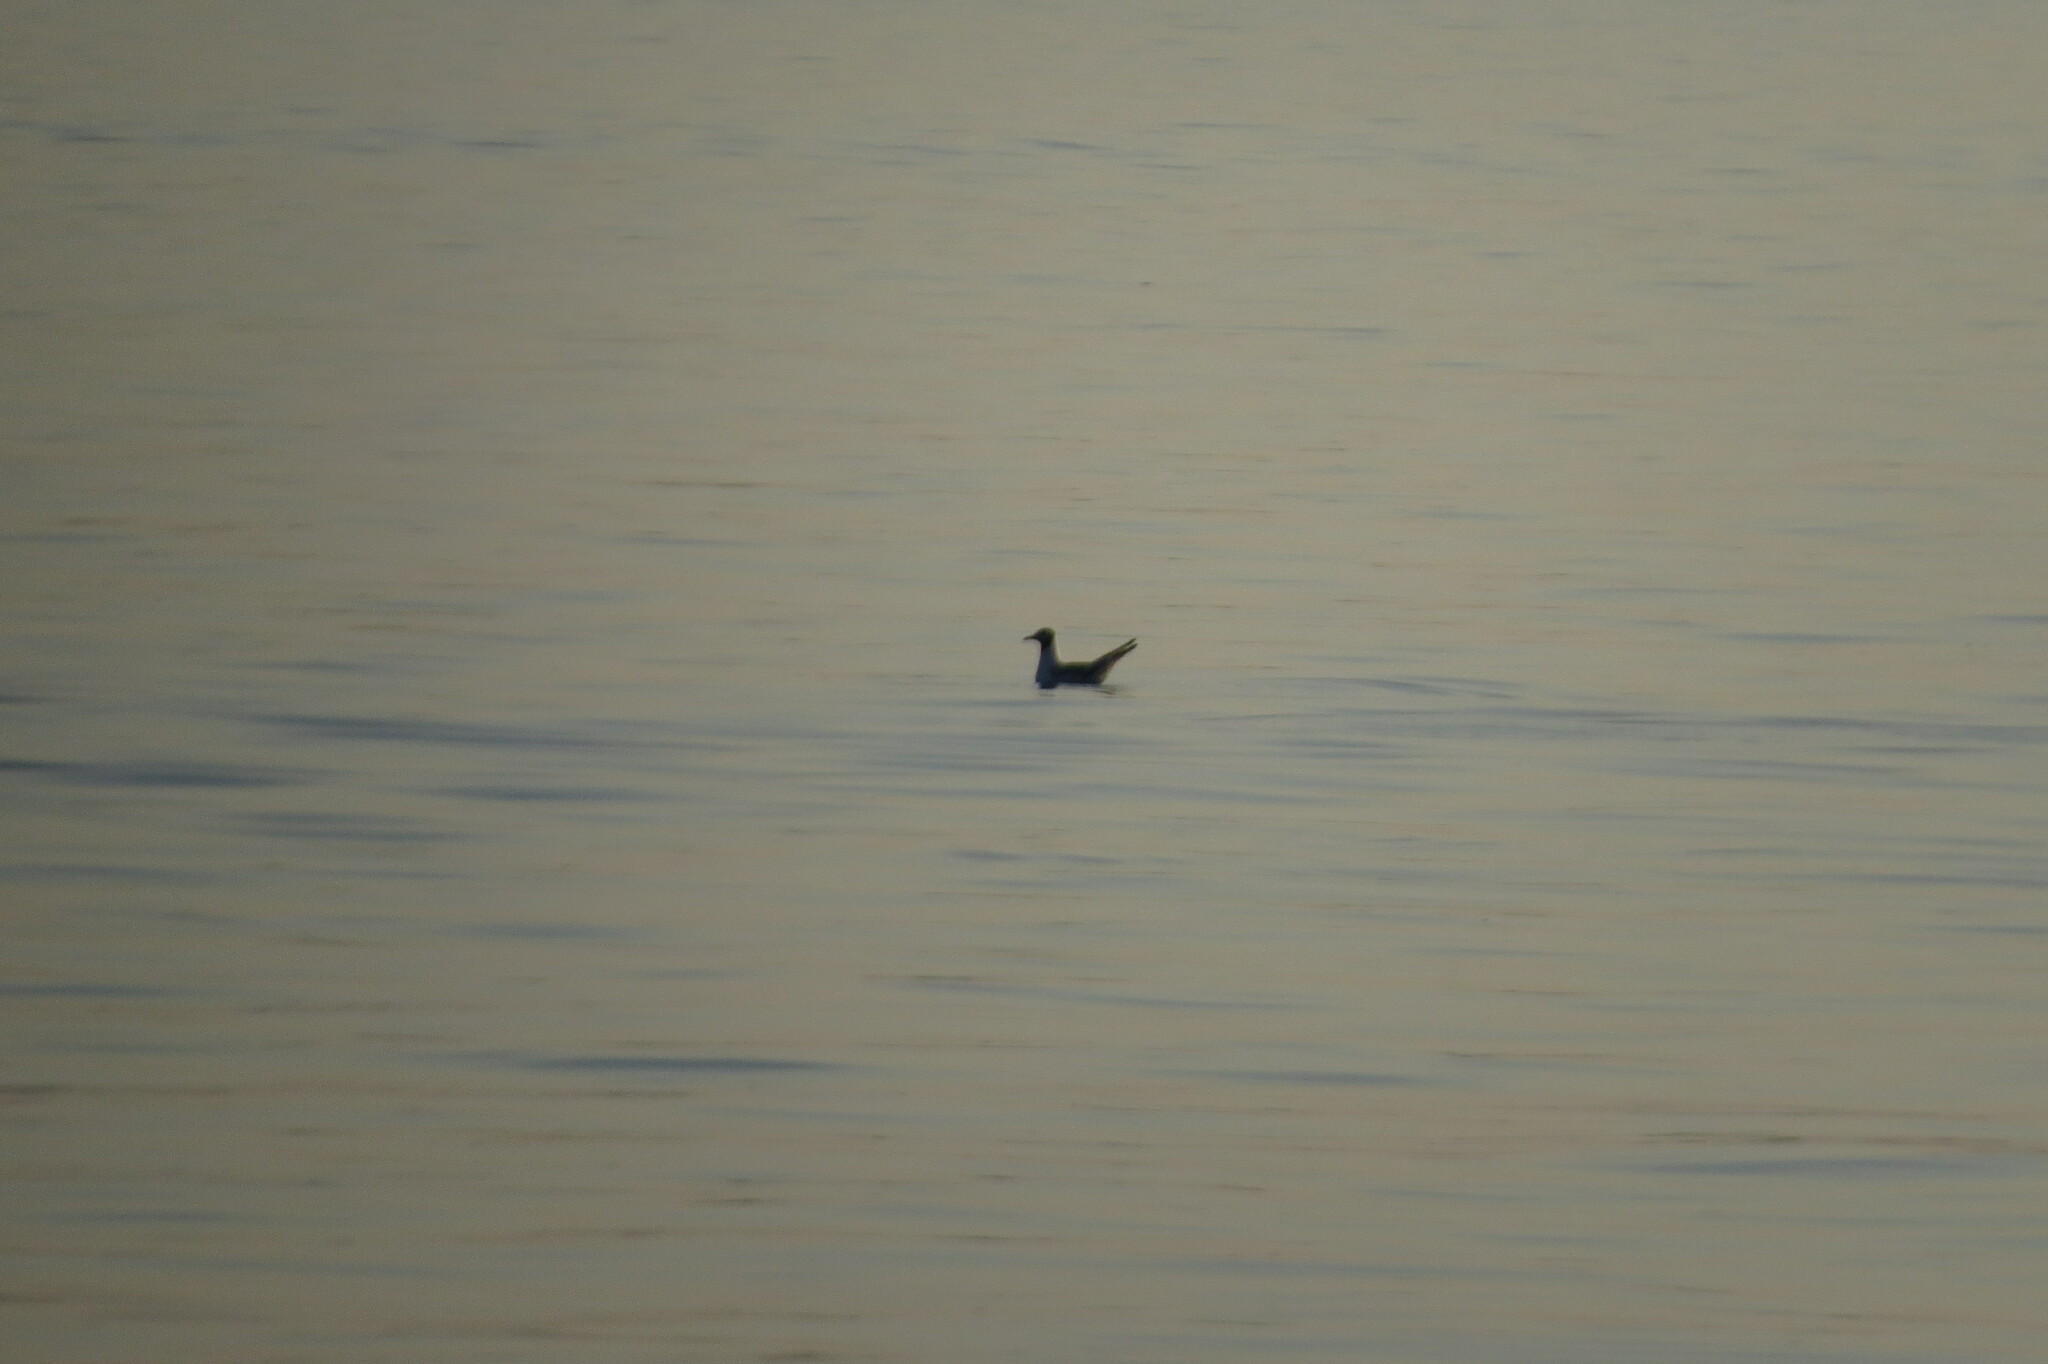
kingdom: Animalia
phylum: Chordata
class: Aves
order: Charadriiformes
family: Laridae
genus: Chroicocephalus
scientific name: Chroicocephalus ridibundus
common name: Black-headed gull
